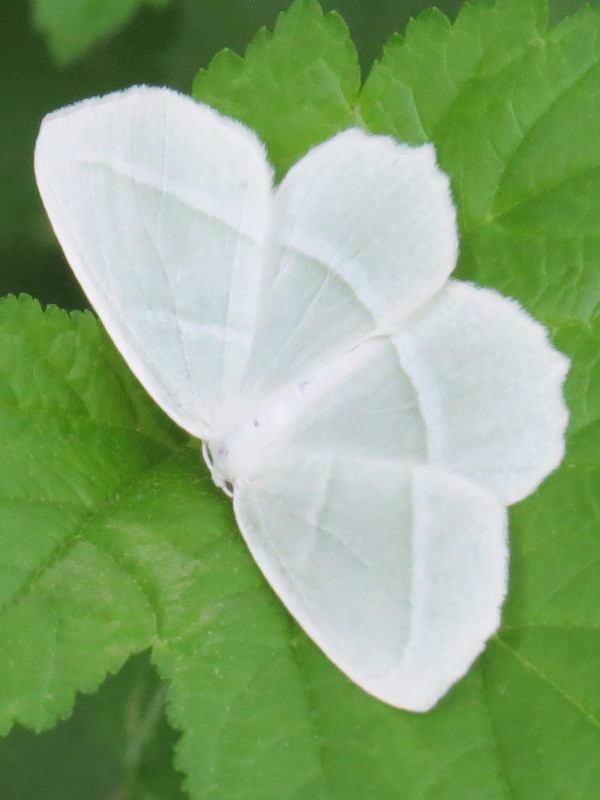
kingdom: Animalia
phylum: Arthropoda
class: Insecta
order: Lepidoptera
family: Geometridae
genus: Campaea
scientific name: Campaea perlata
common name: Fringed looper
